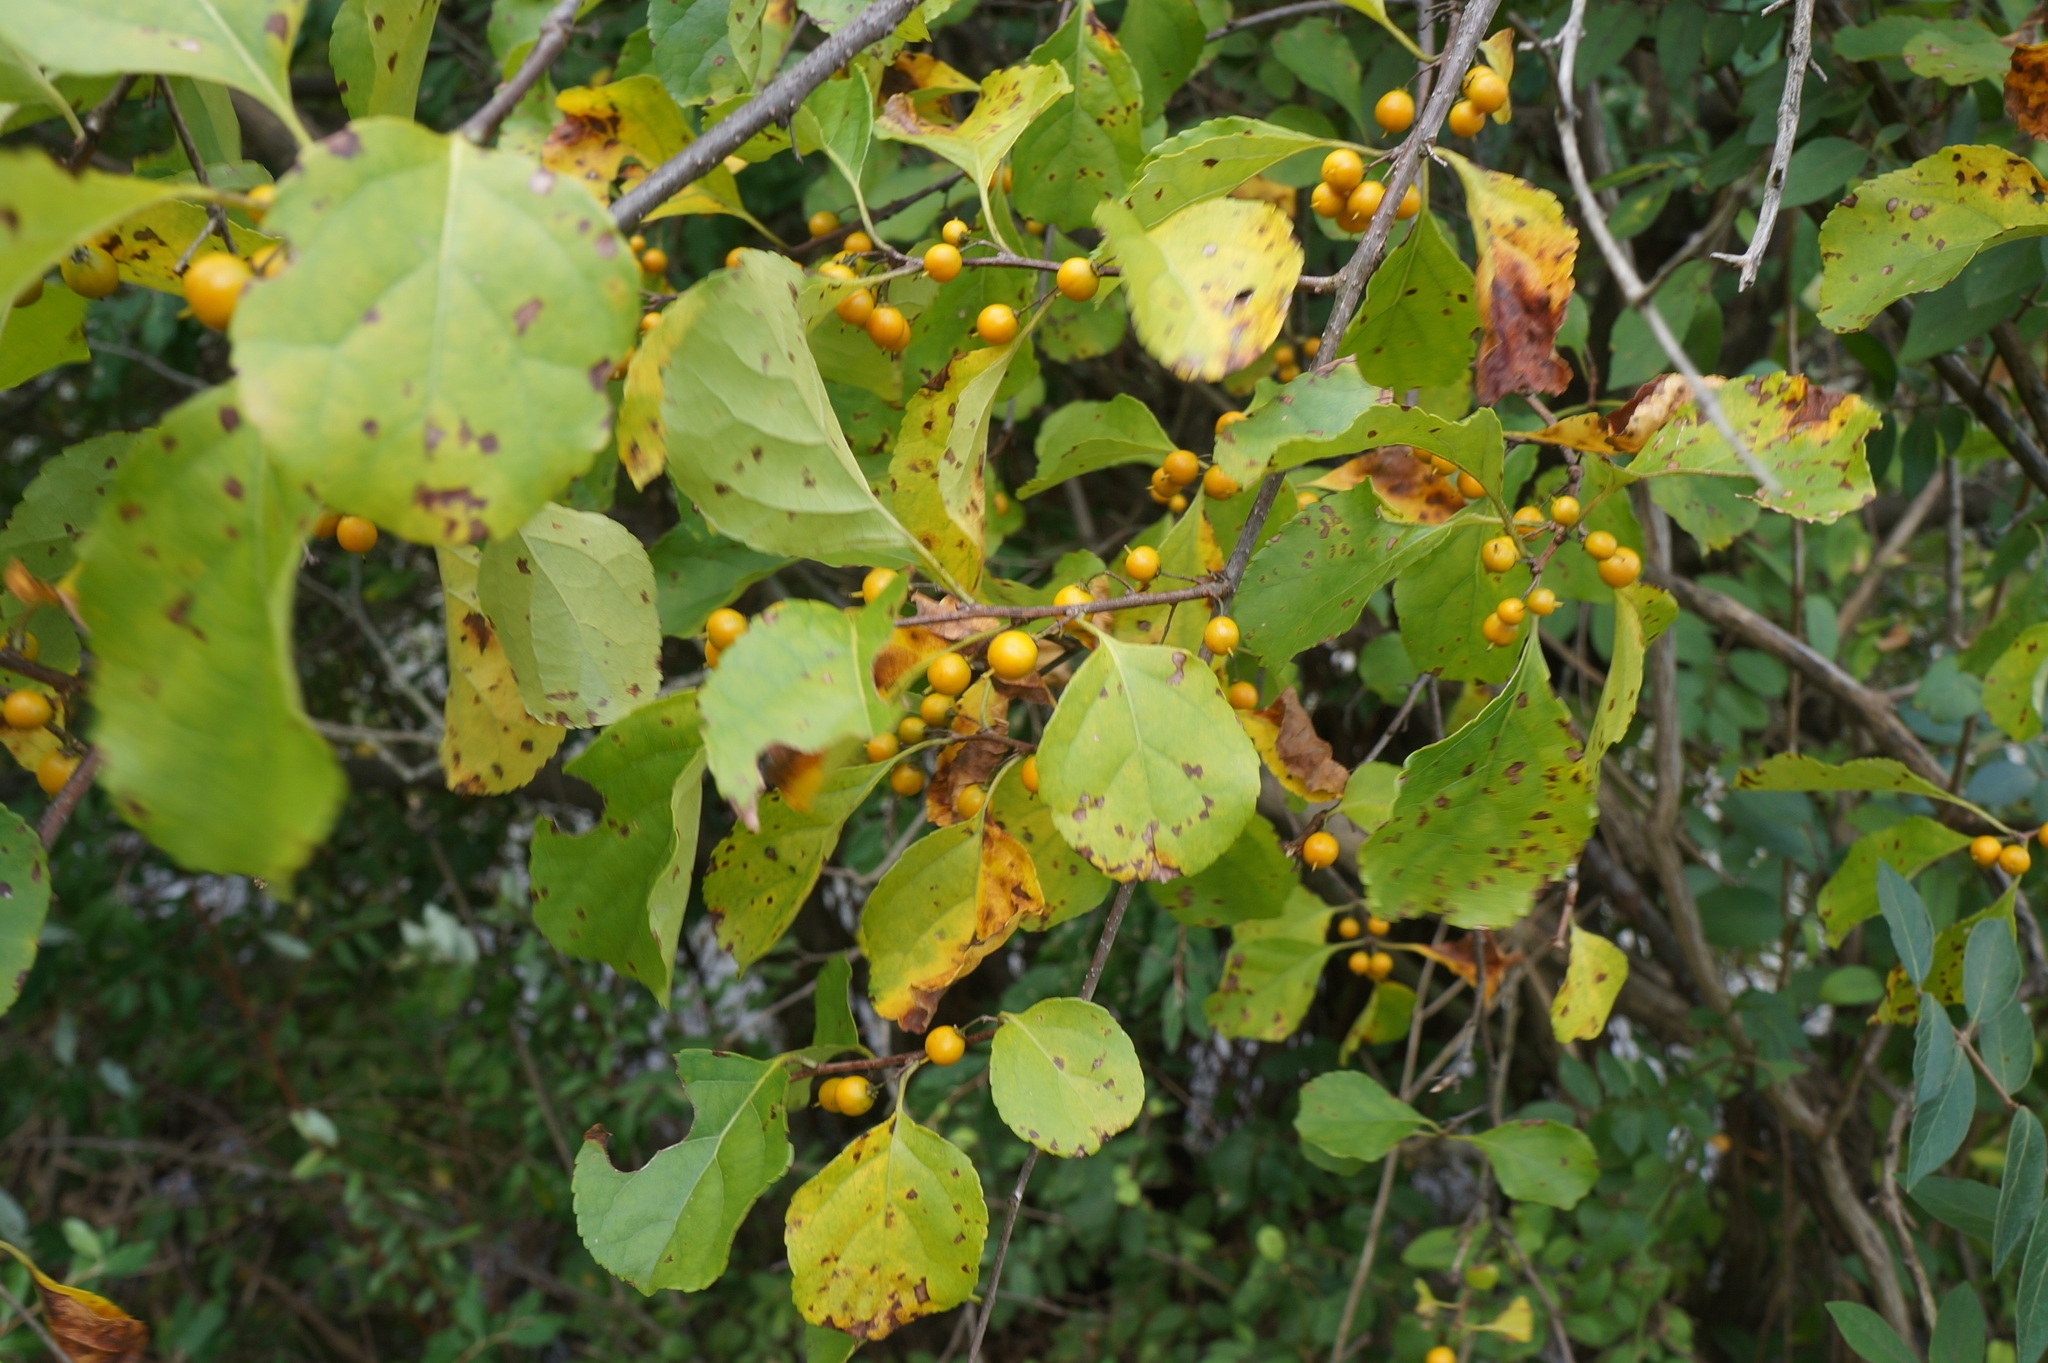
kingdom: Plantae
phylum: Tracheophyta
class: Magnoliopsida
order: Celastrales
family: Celastraceae
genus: Celastrus
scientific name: Celastrus orbiculatus
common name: Oriental bittersweet
